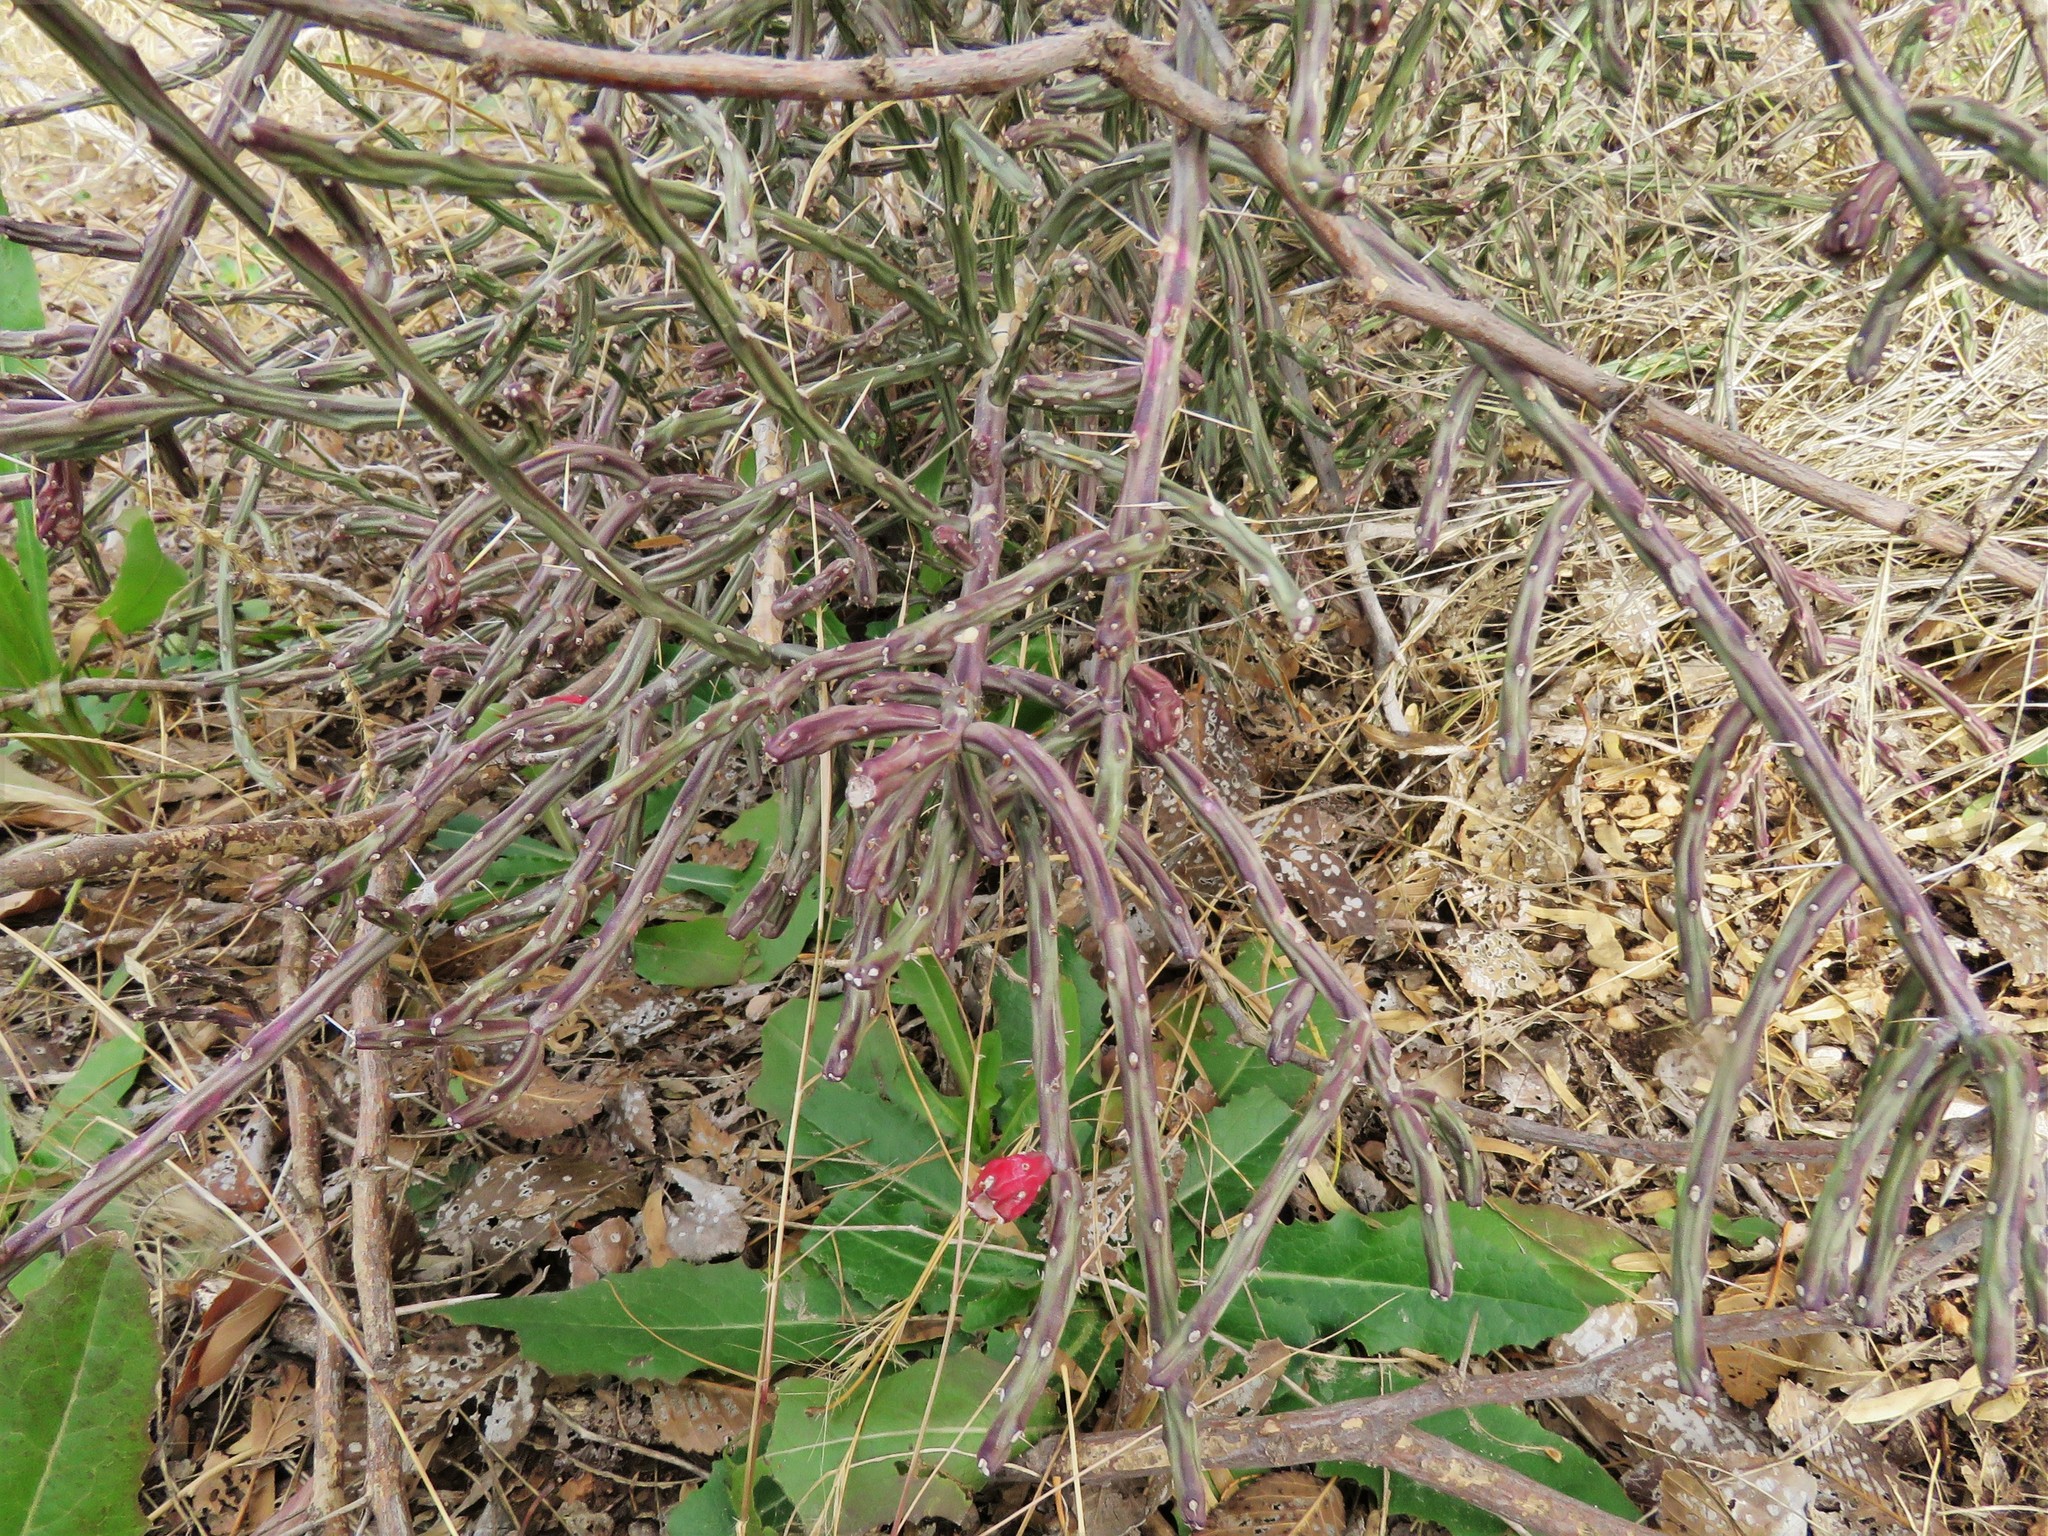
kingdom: Plantae
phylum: Tracheophyta
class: Magnoliopsida
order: Caryophyllales
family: Cactaceae
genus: Cylindropuntia
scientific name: Cylindropuntia leptocaulis
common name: Christmas cactus
